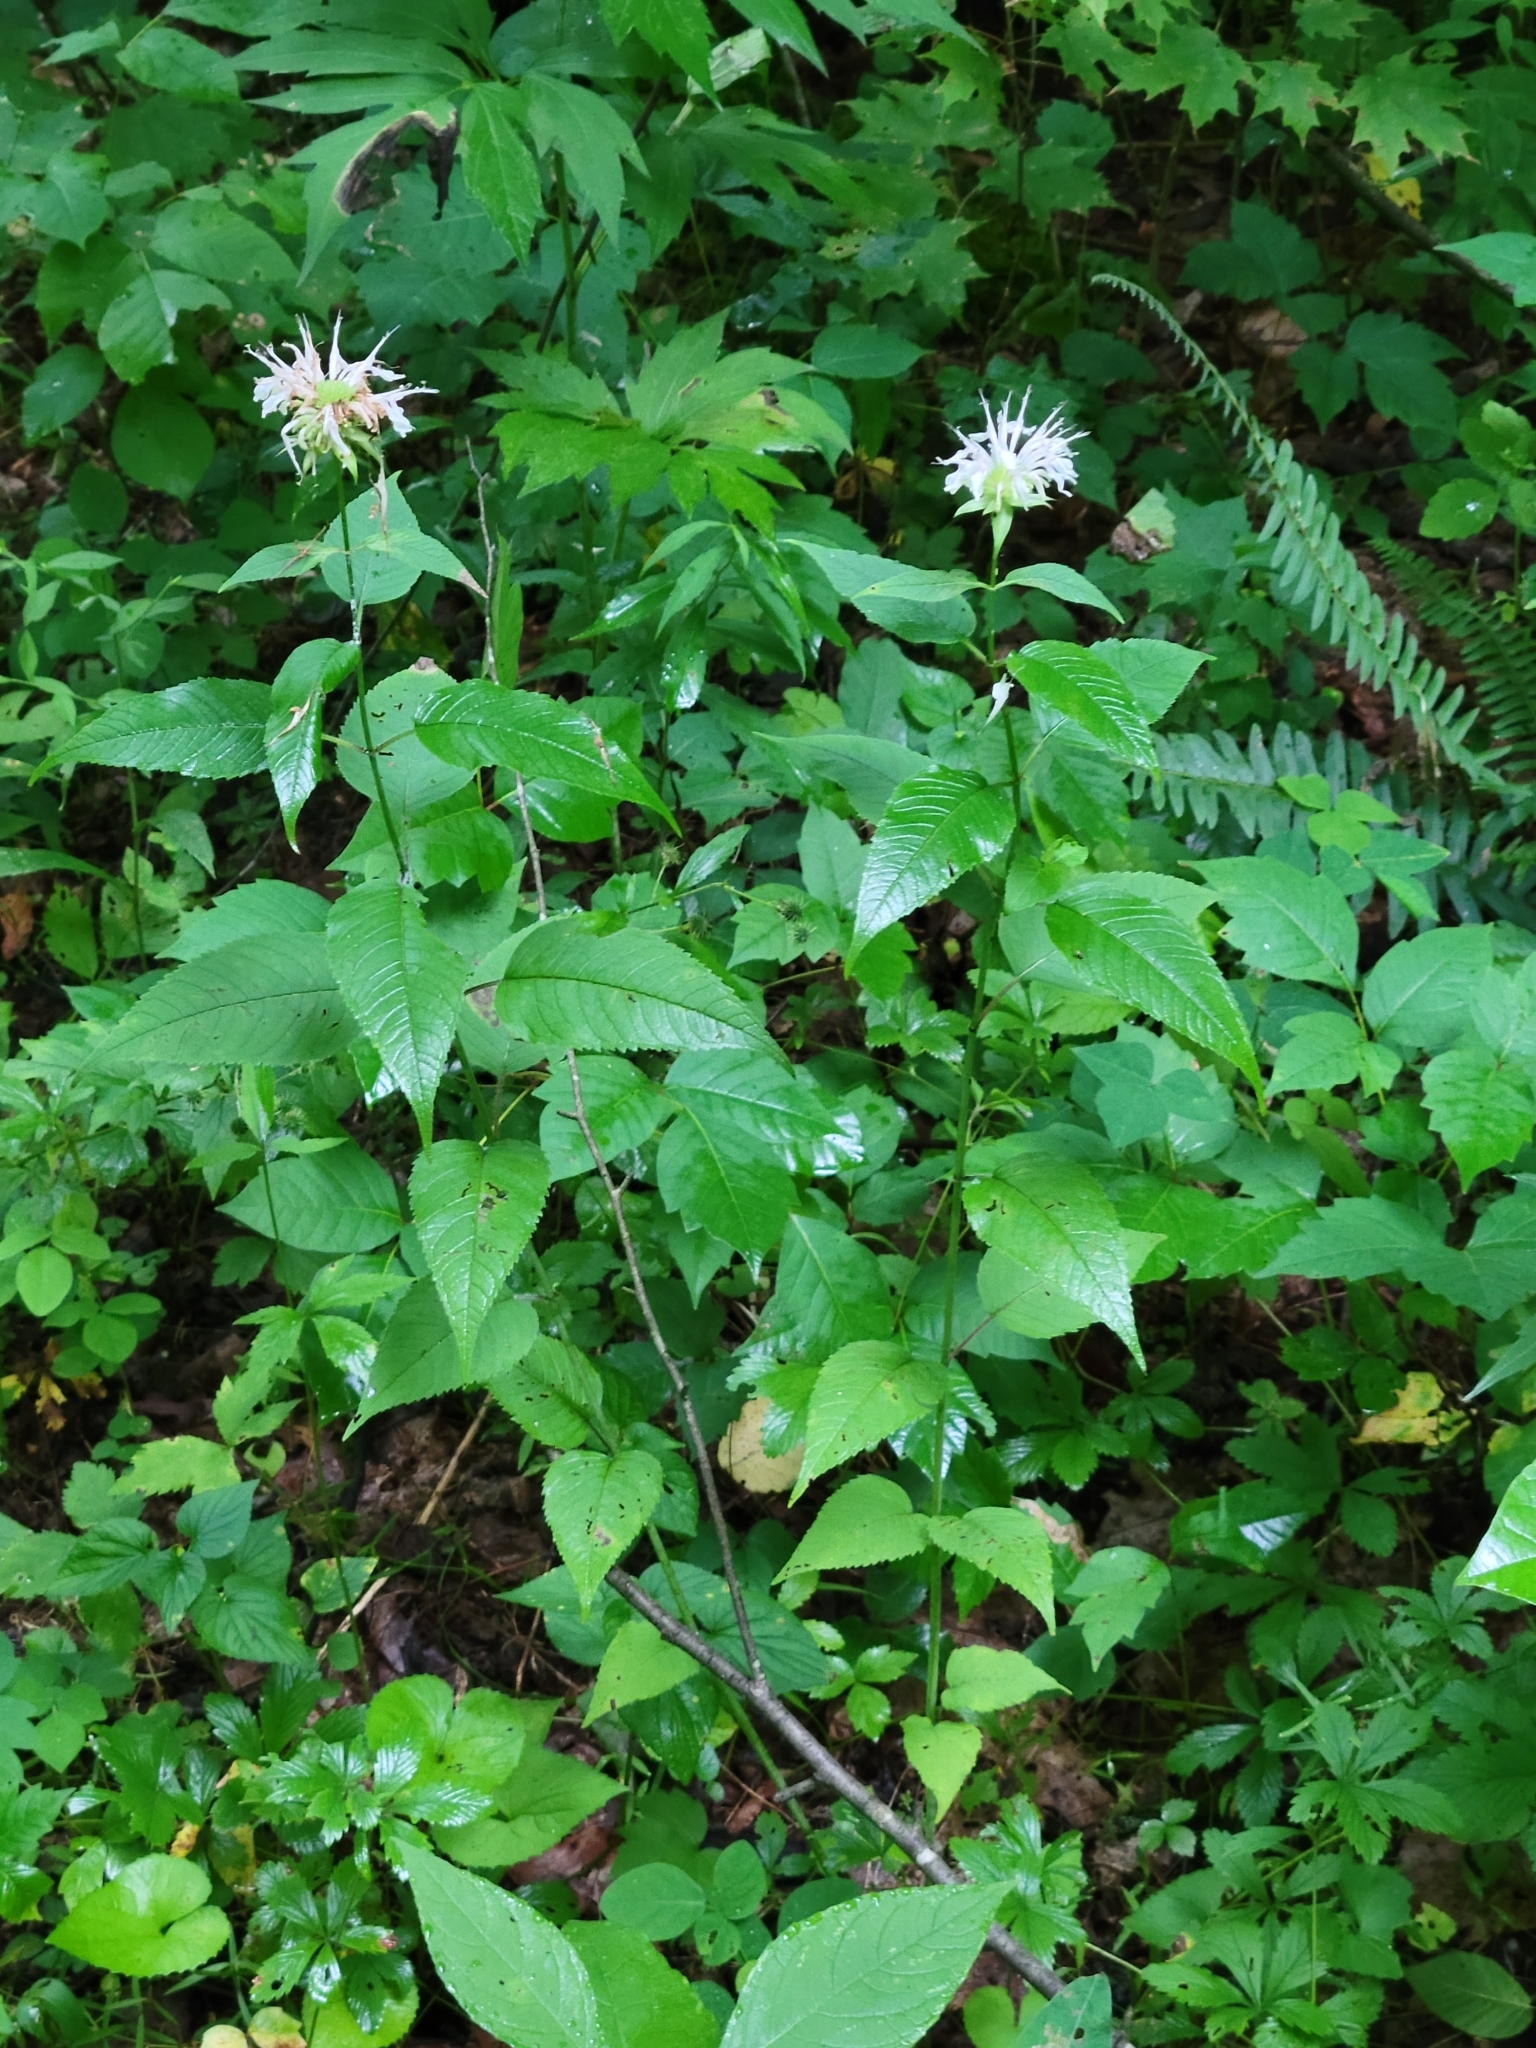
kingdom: Plantae
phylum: Tracheophyta
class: Magnoliopsida
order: Lamiales
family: Lamiaceae
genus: Monarda
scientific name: Monarda clinopodia
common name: Basil beebalm
